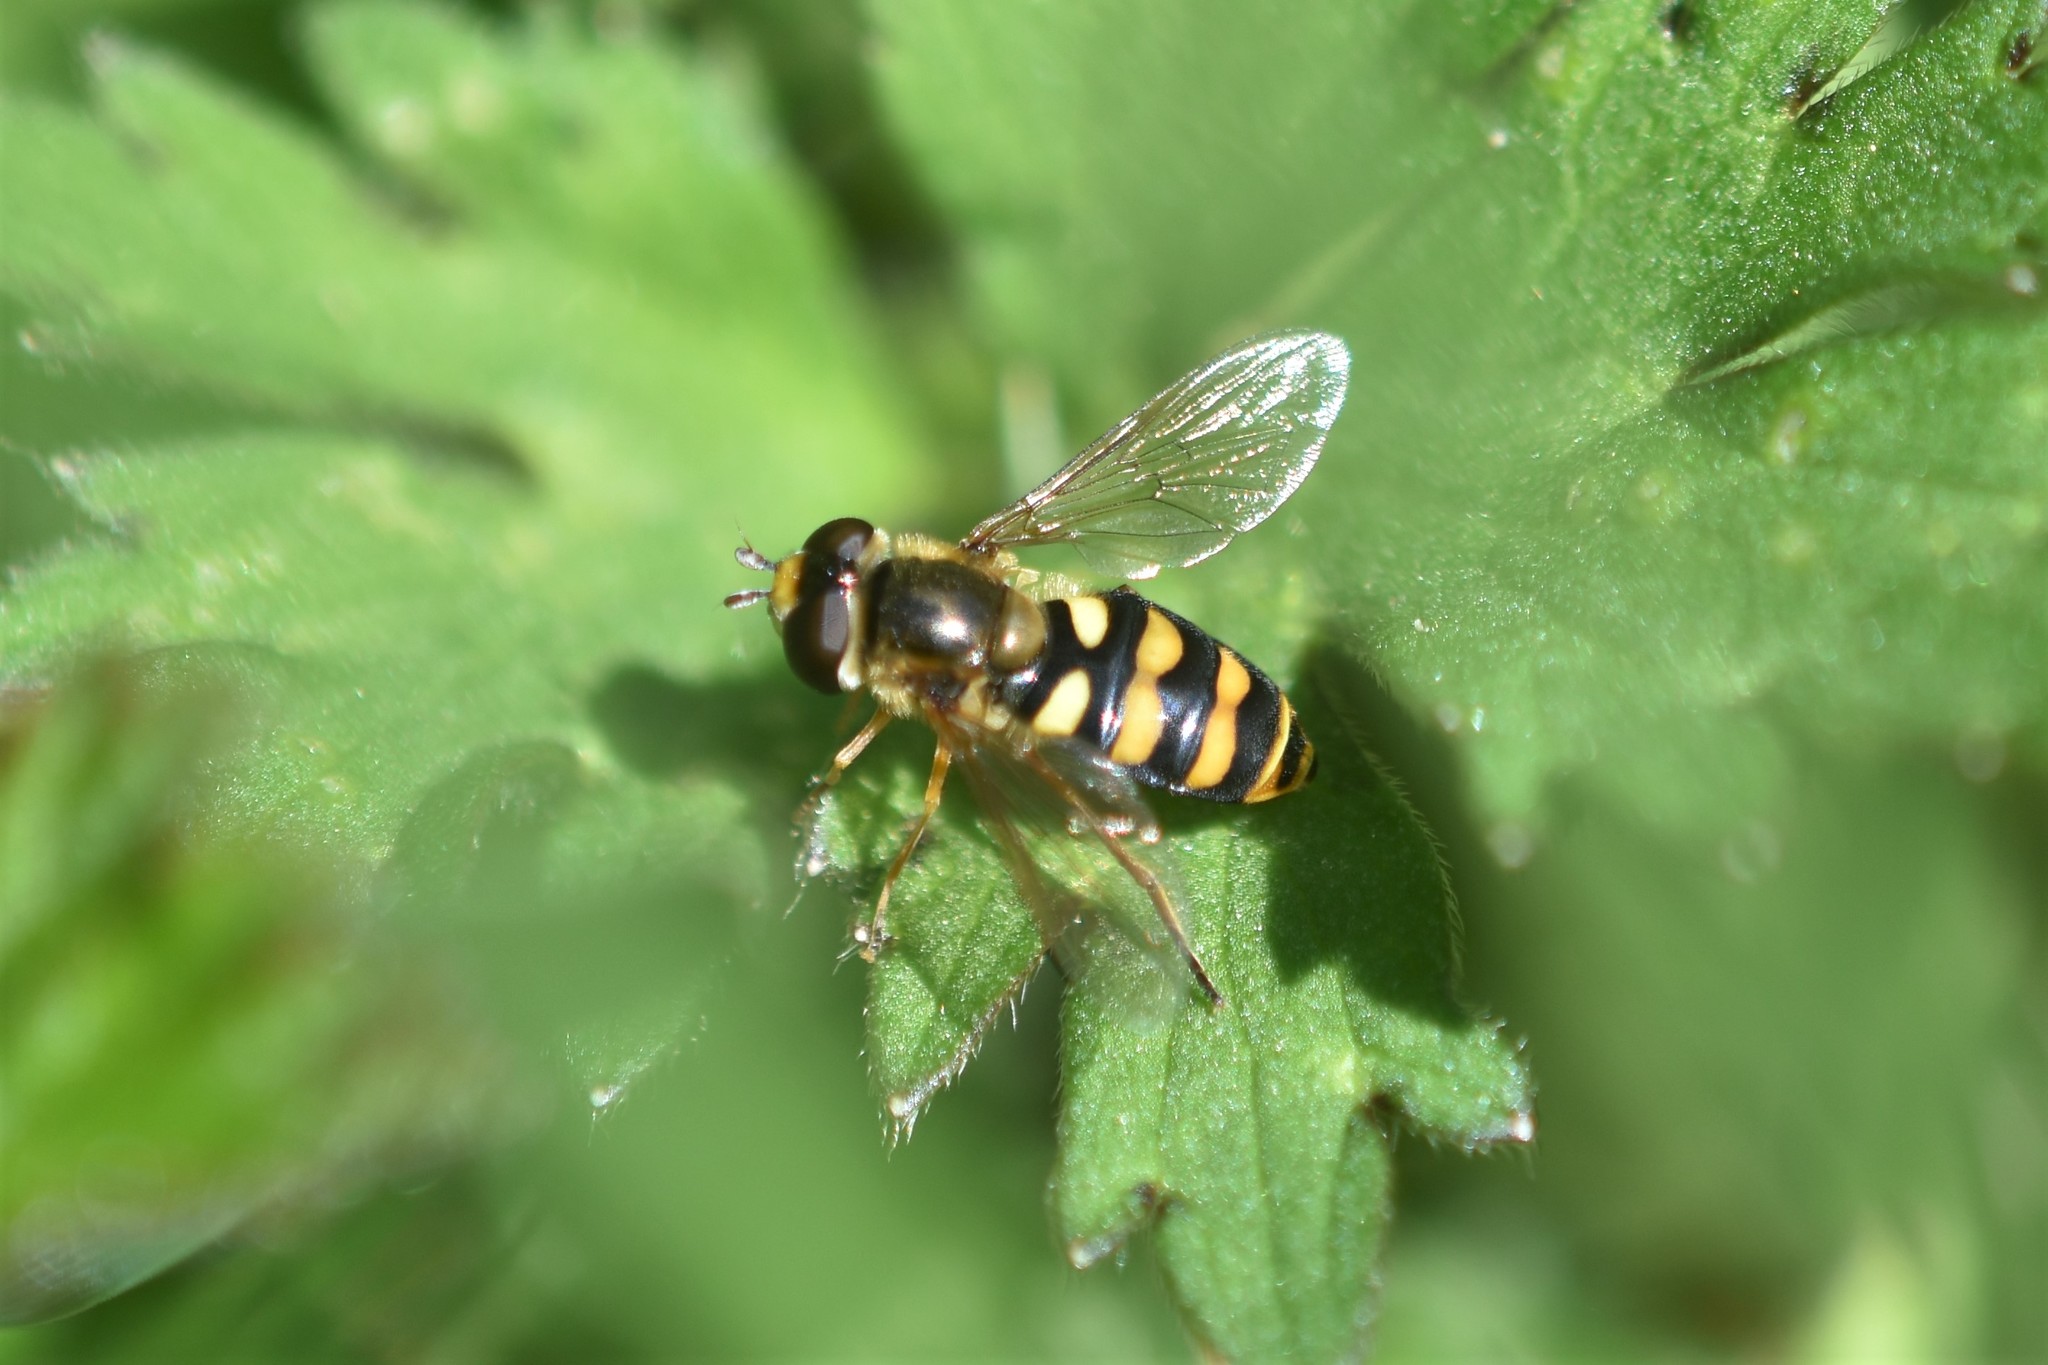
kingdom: Animalia
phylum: Arthropoda
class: Insecta
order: Diptera
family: Syrphidae
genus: Eupeodes
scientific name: Eupeodes latifasciatus
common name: Variable aphideater
